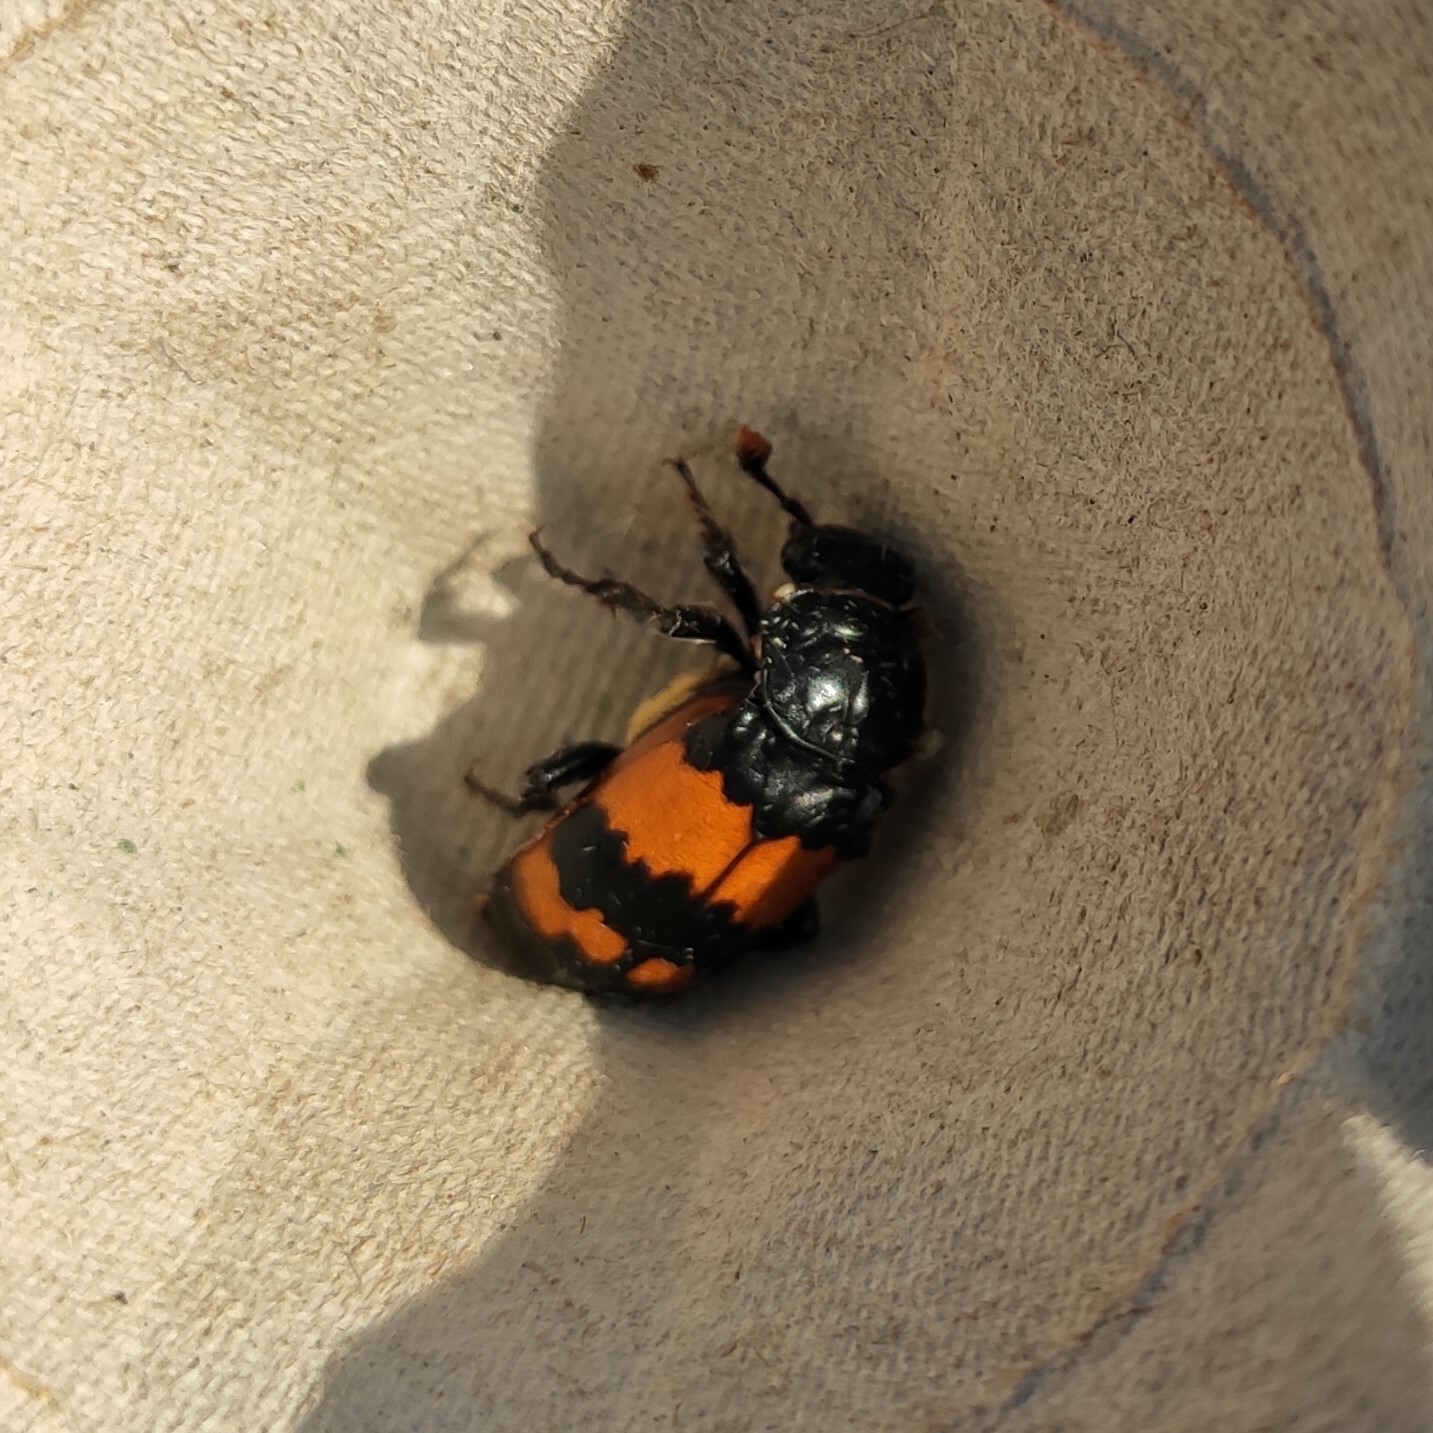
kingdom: Animalia
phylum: Arthropoda
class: Insecta
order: Coleoptera
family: Staphylinidae
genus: Nicrophorus
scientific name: Nicrophorus investigator
